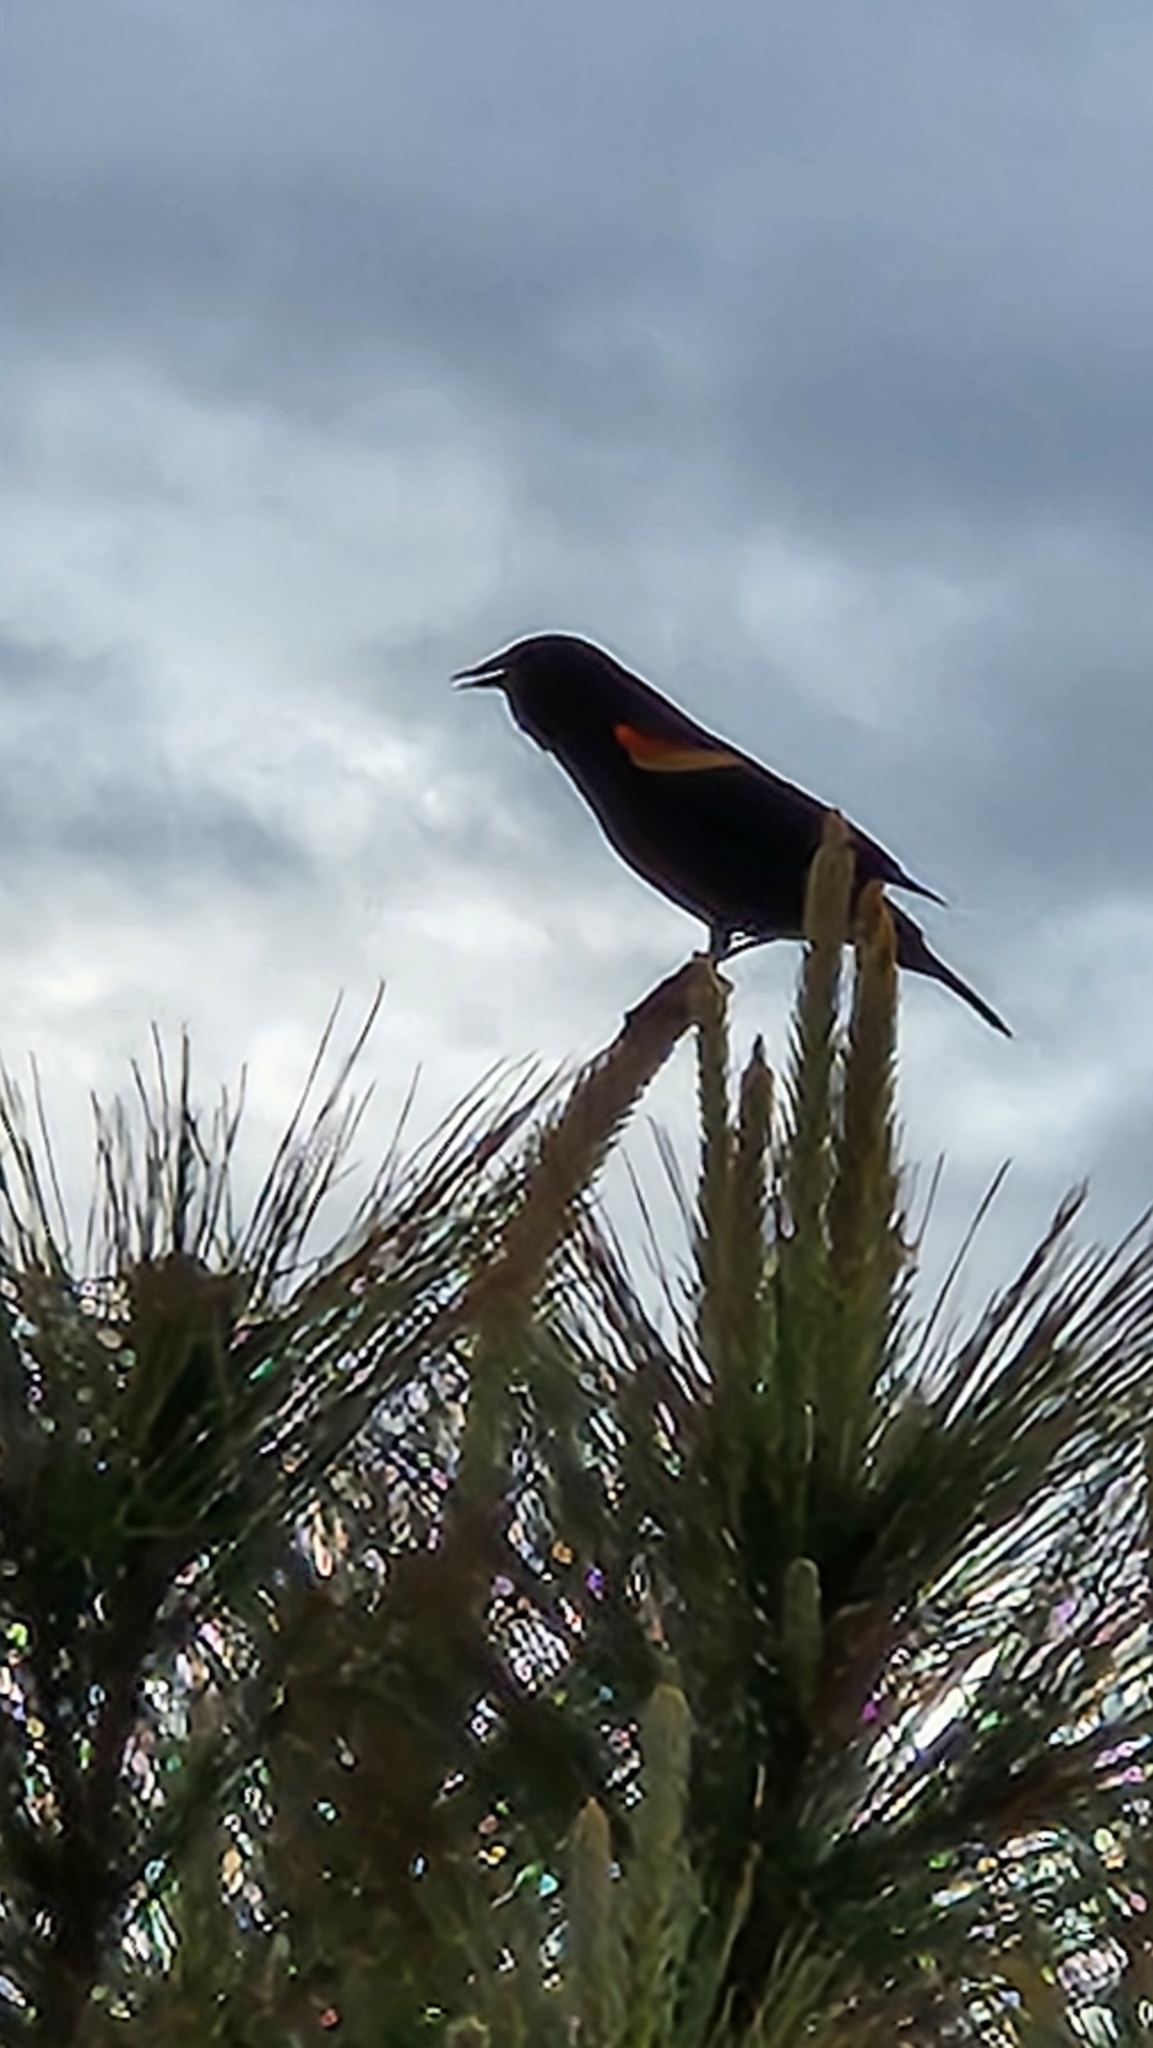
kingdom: Animalia
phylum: Chordata
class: Aves
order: Passeriformes
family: Icteridae
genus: Agelaius
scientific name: Agelaius phoeniceus
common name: Red-winged blackbird
